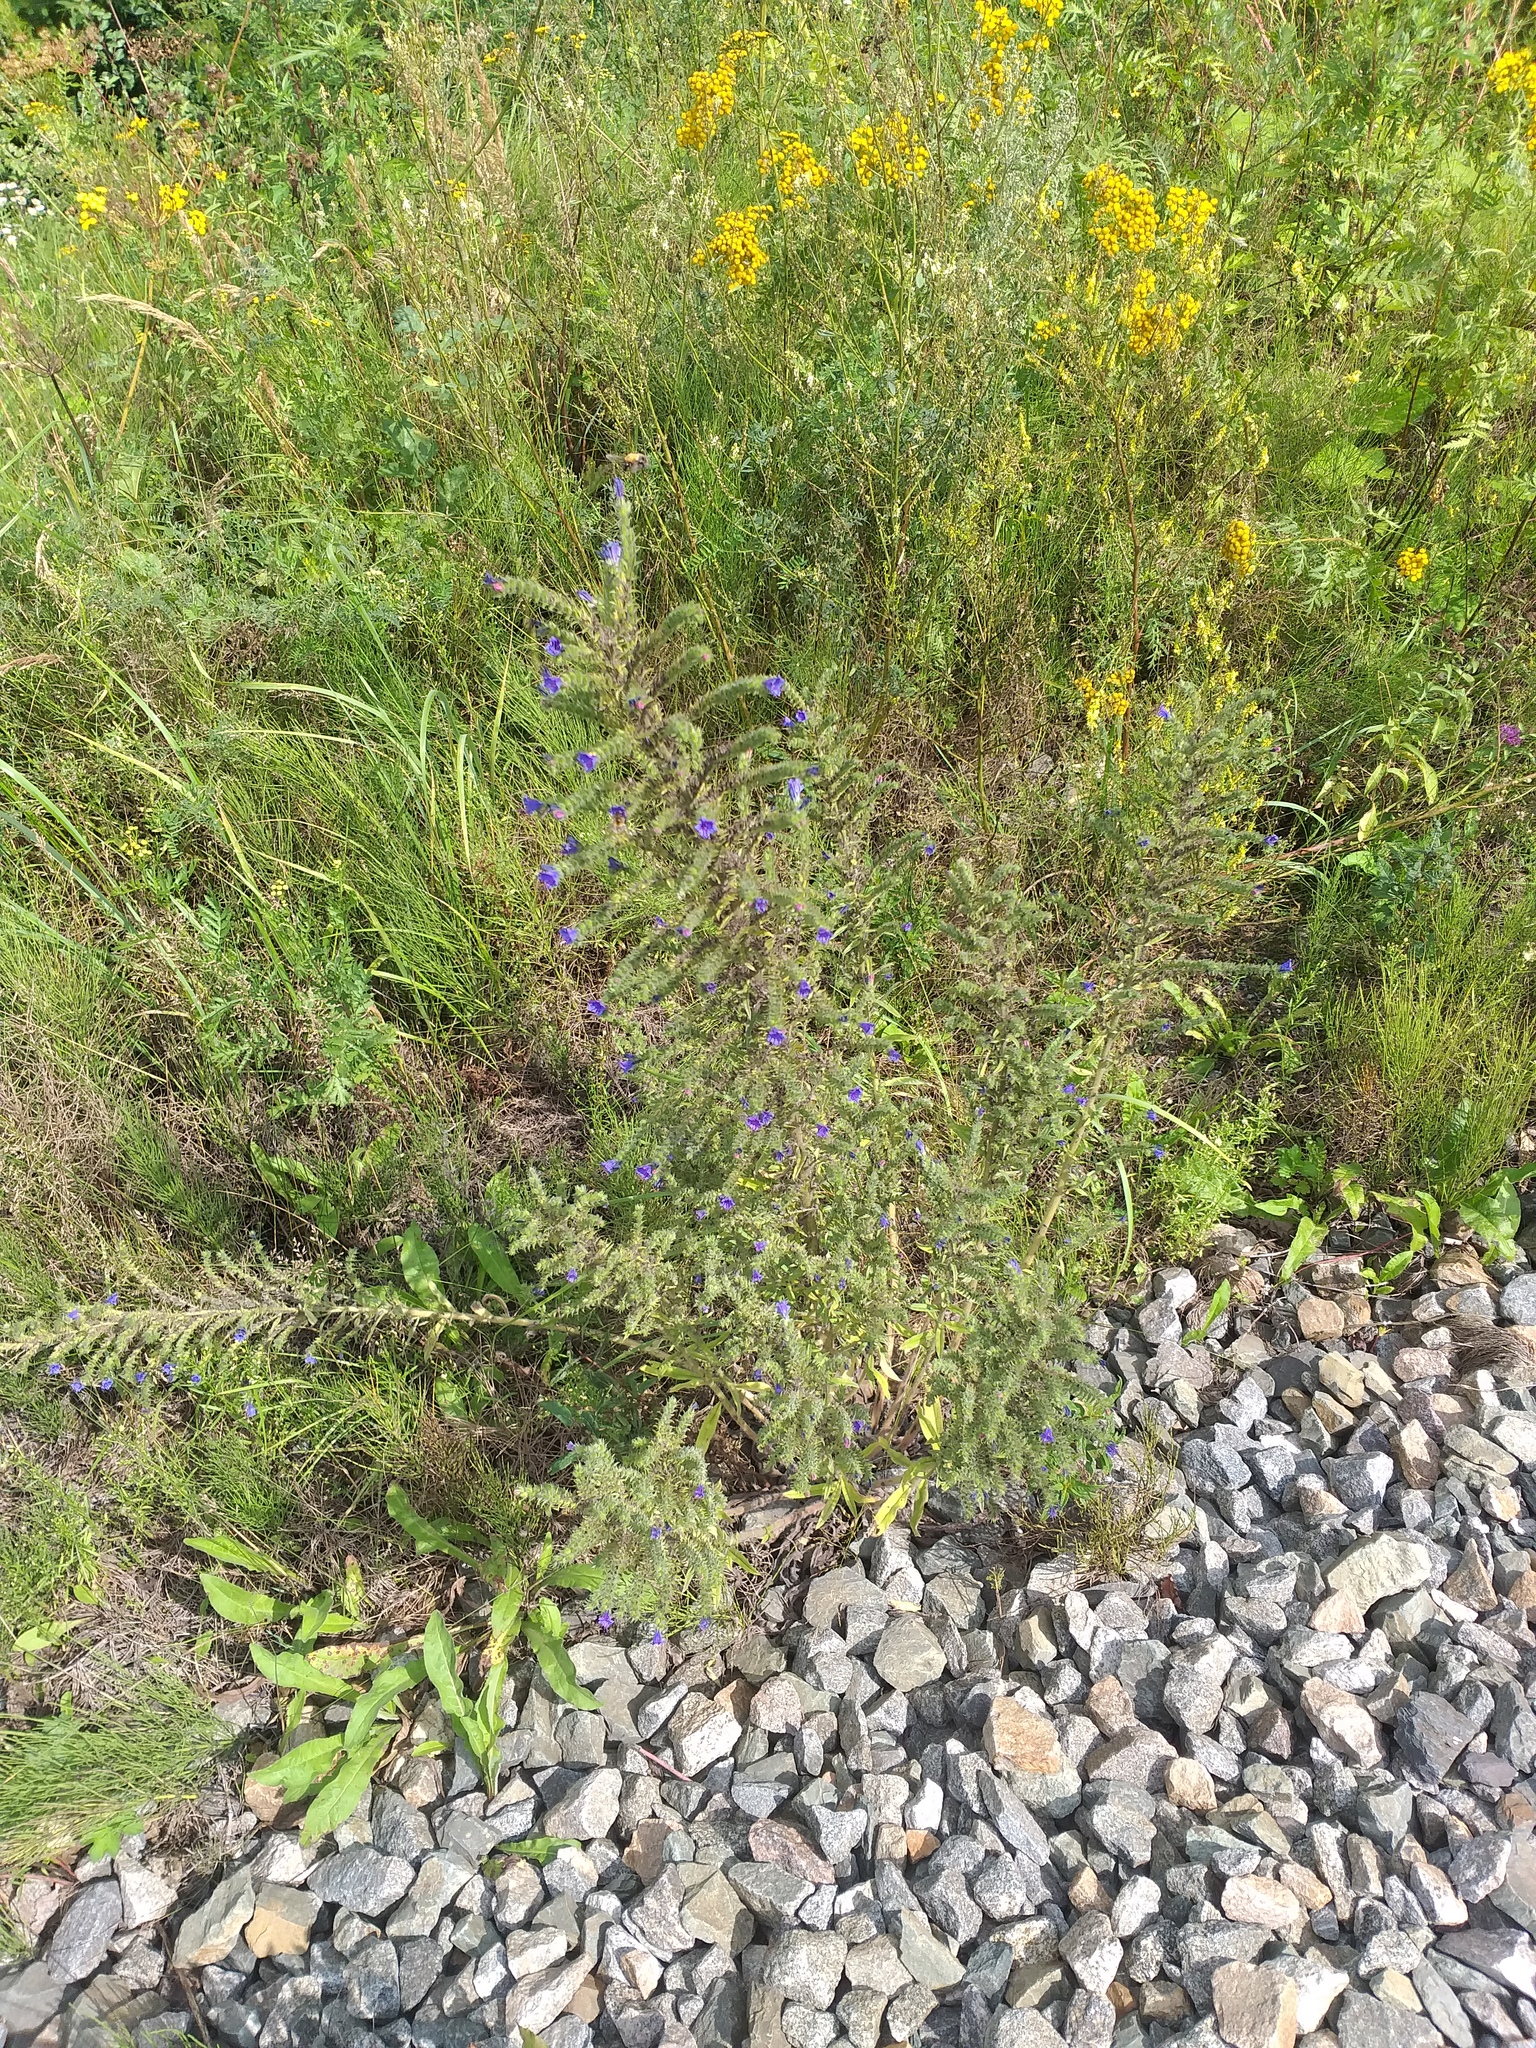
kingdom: Plantae
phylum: Tracheophyta
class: Magnoliopsida
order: Boraginales
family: Boraginaceae
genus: Echium
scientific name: Echium vulgare
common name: Common viper's bugloss
